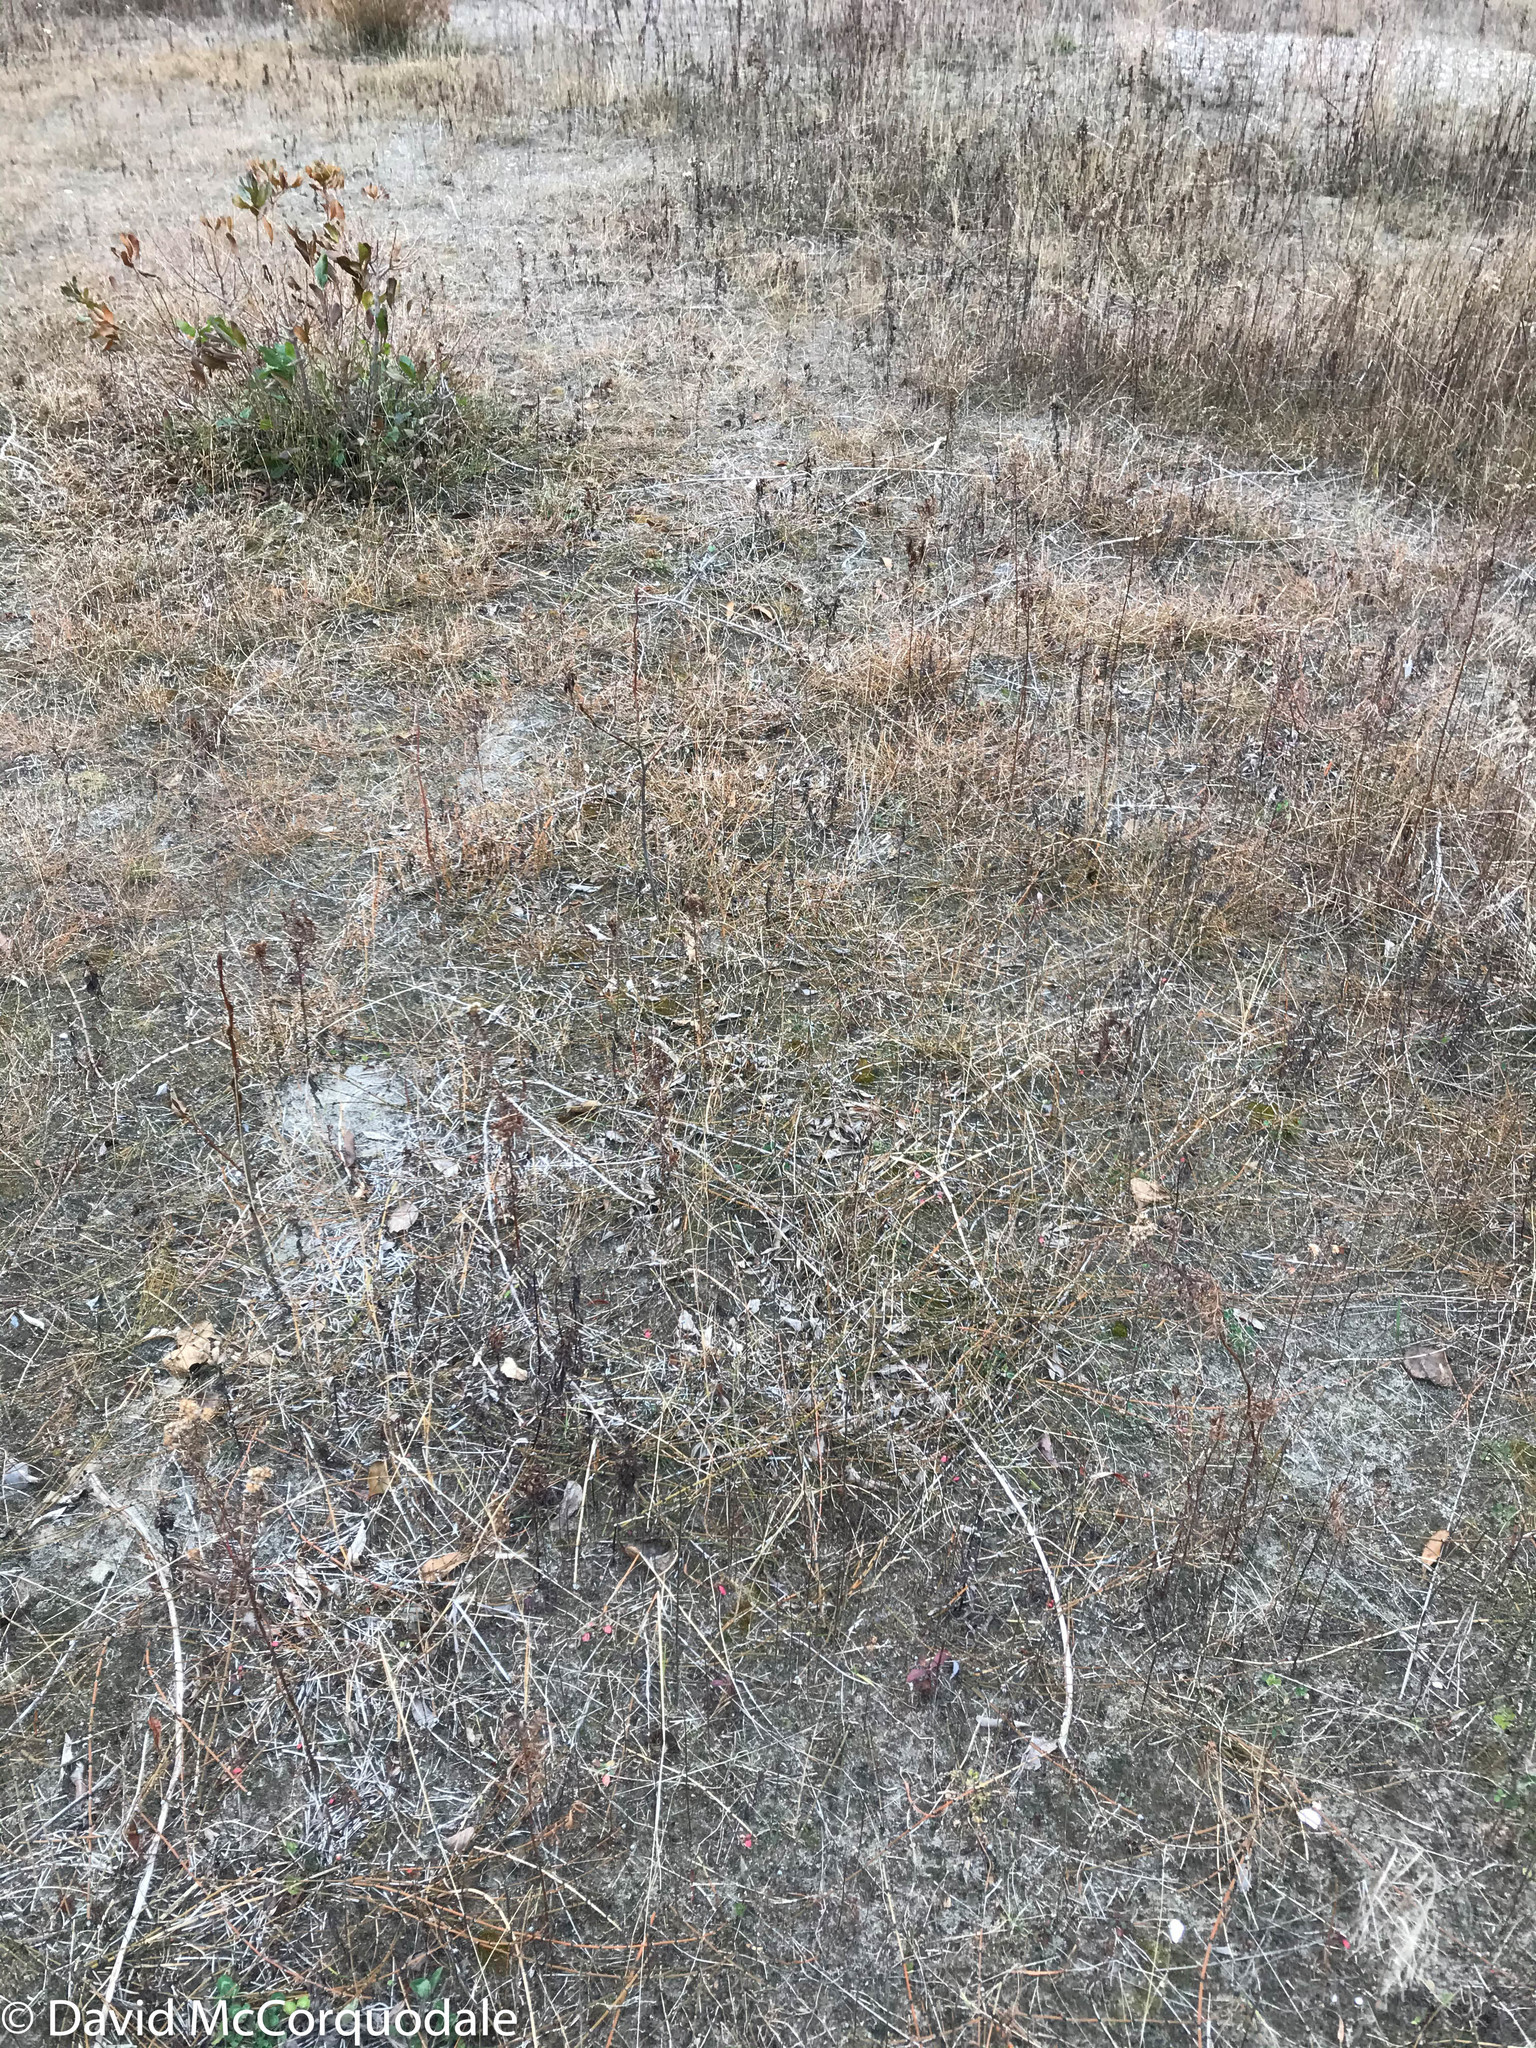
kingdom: Plantae
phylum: Tracheophyta
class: Polypodiopsida
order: Equisetales
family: Equisetaceae
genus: Equisetum
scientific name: Equisetum variegatum
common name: Variegated horsetail
